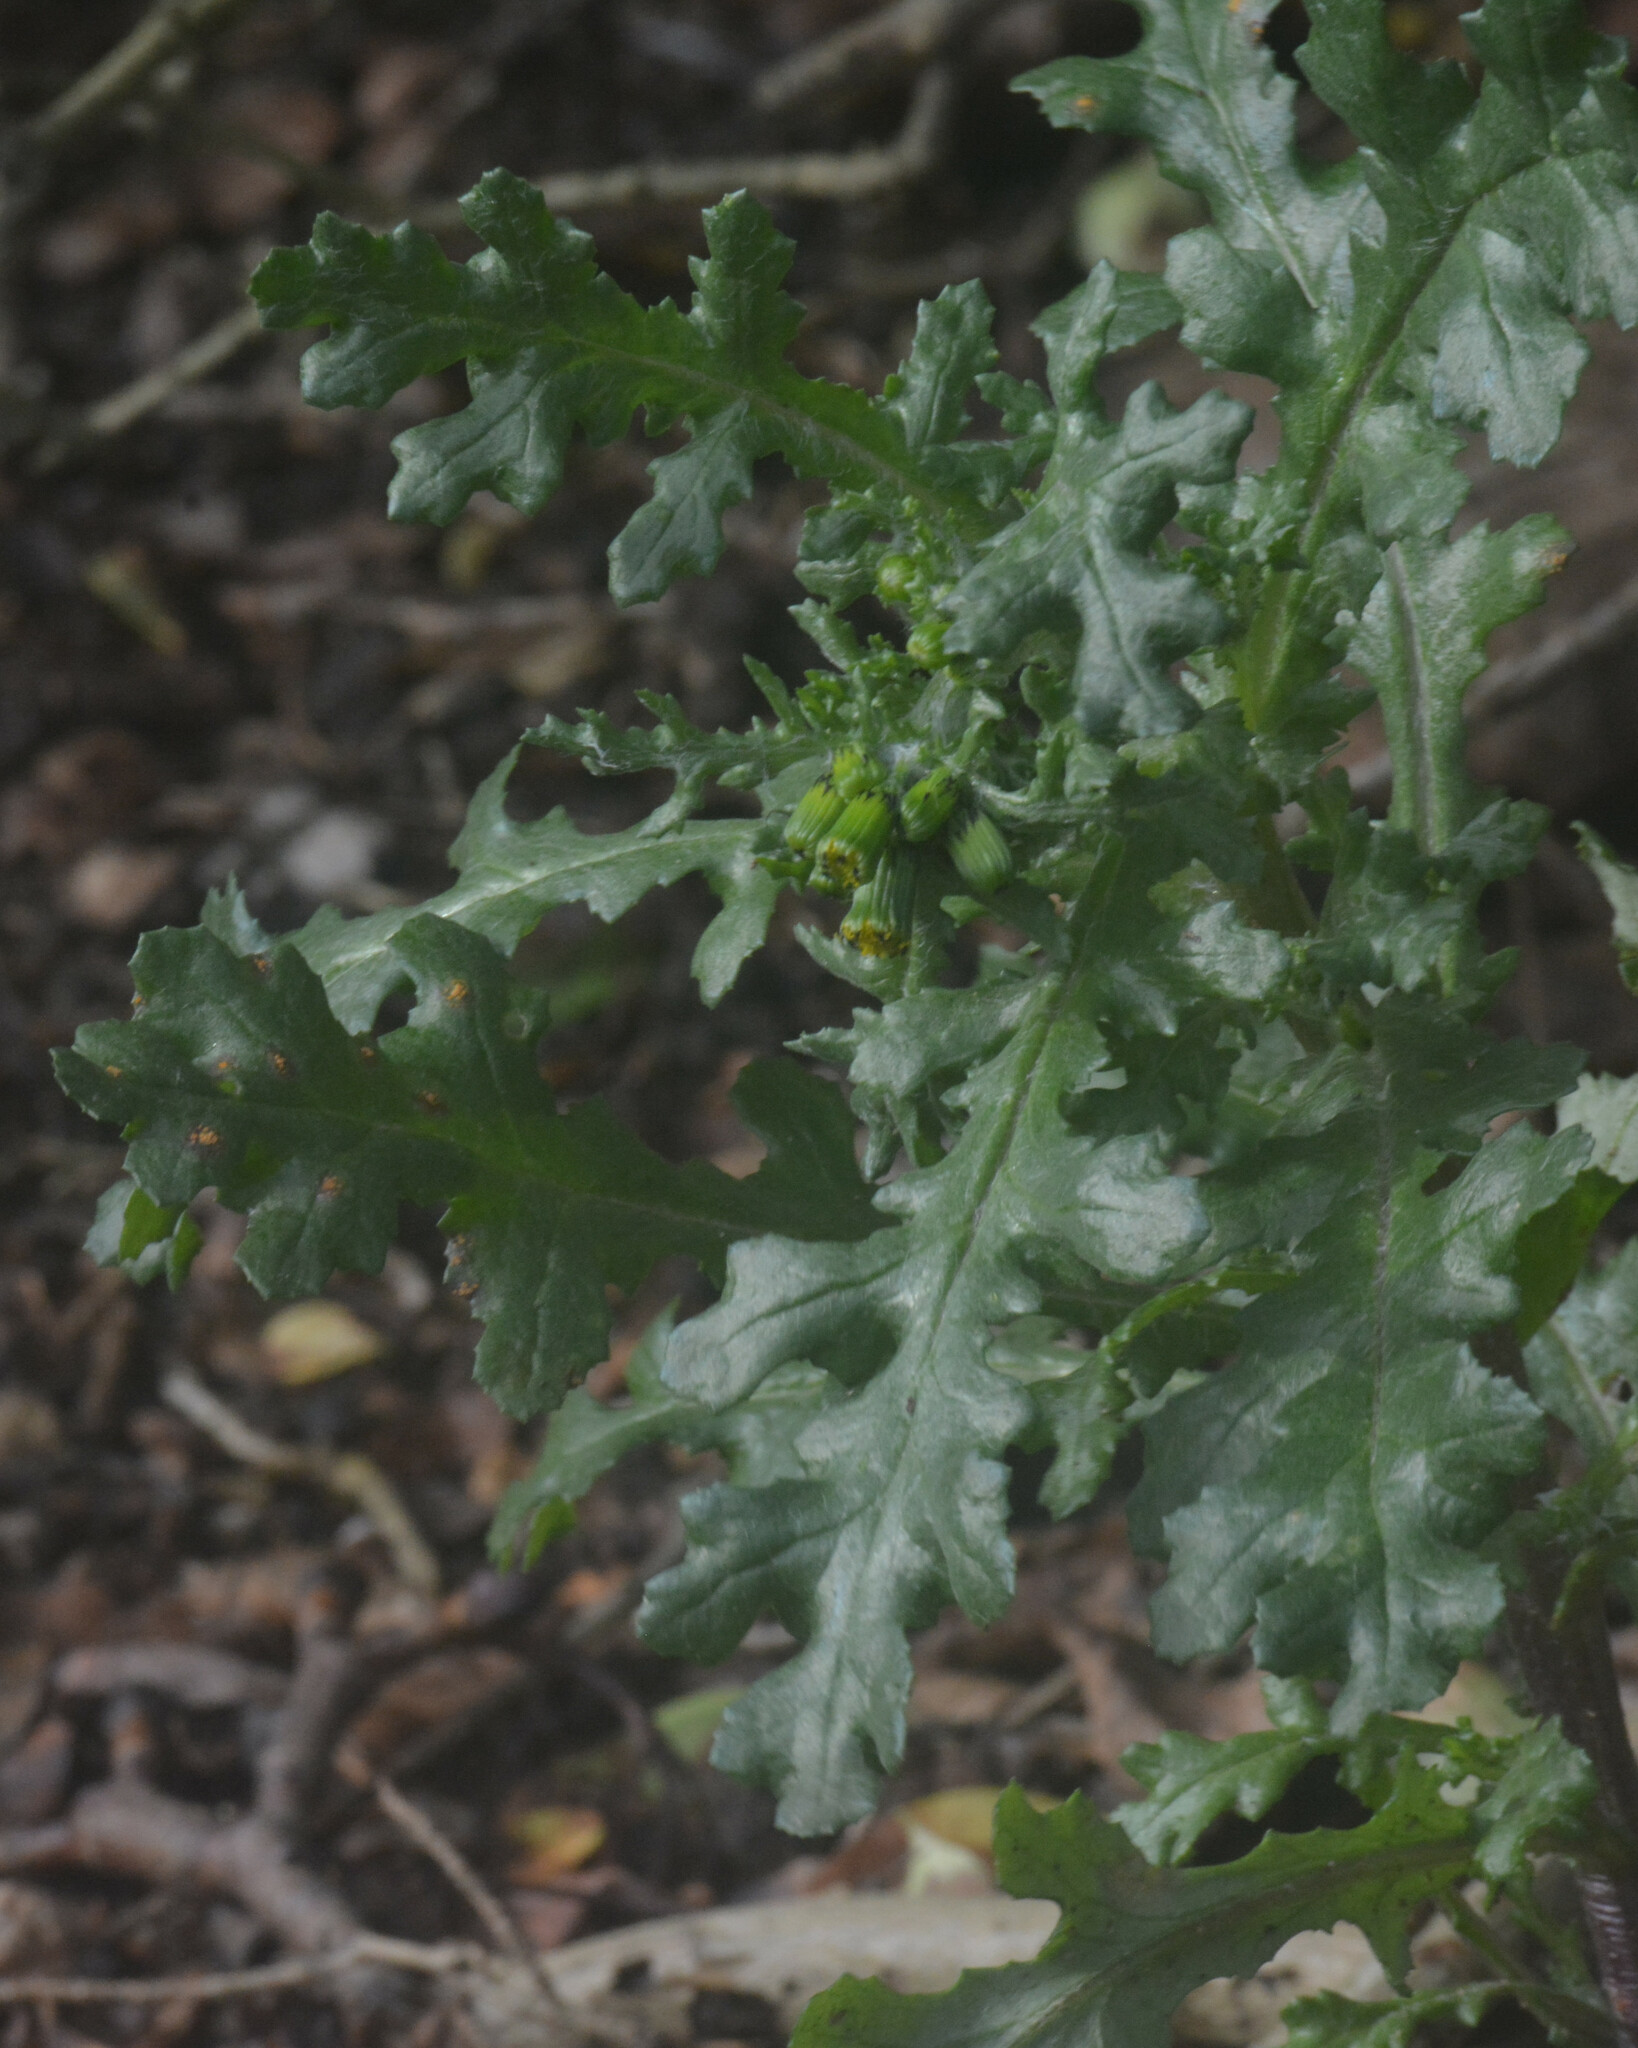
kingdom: Plantae
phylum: Tracheophyta
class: Magnoliopsida
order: Asterales
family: Asteraceae
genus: Senecio
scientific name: Senecio vulgaris
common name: Old-man-in-the-spring
